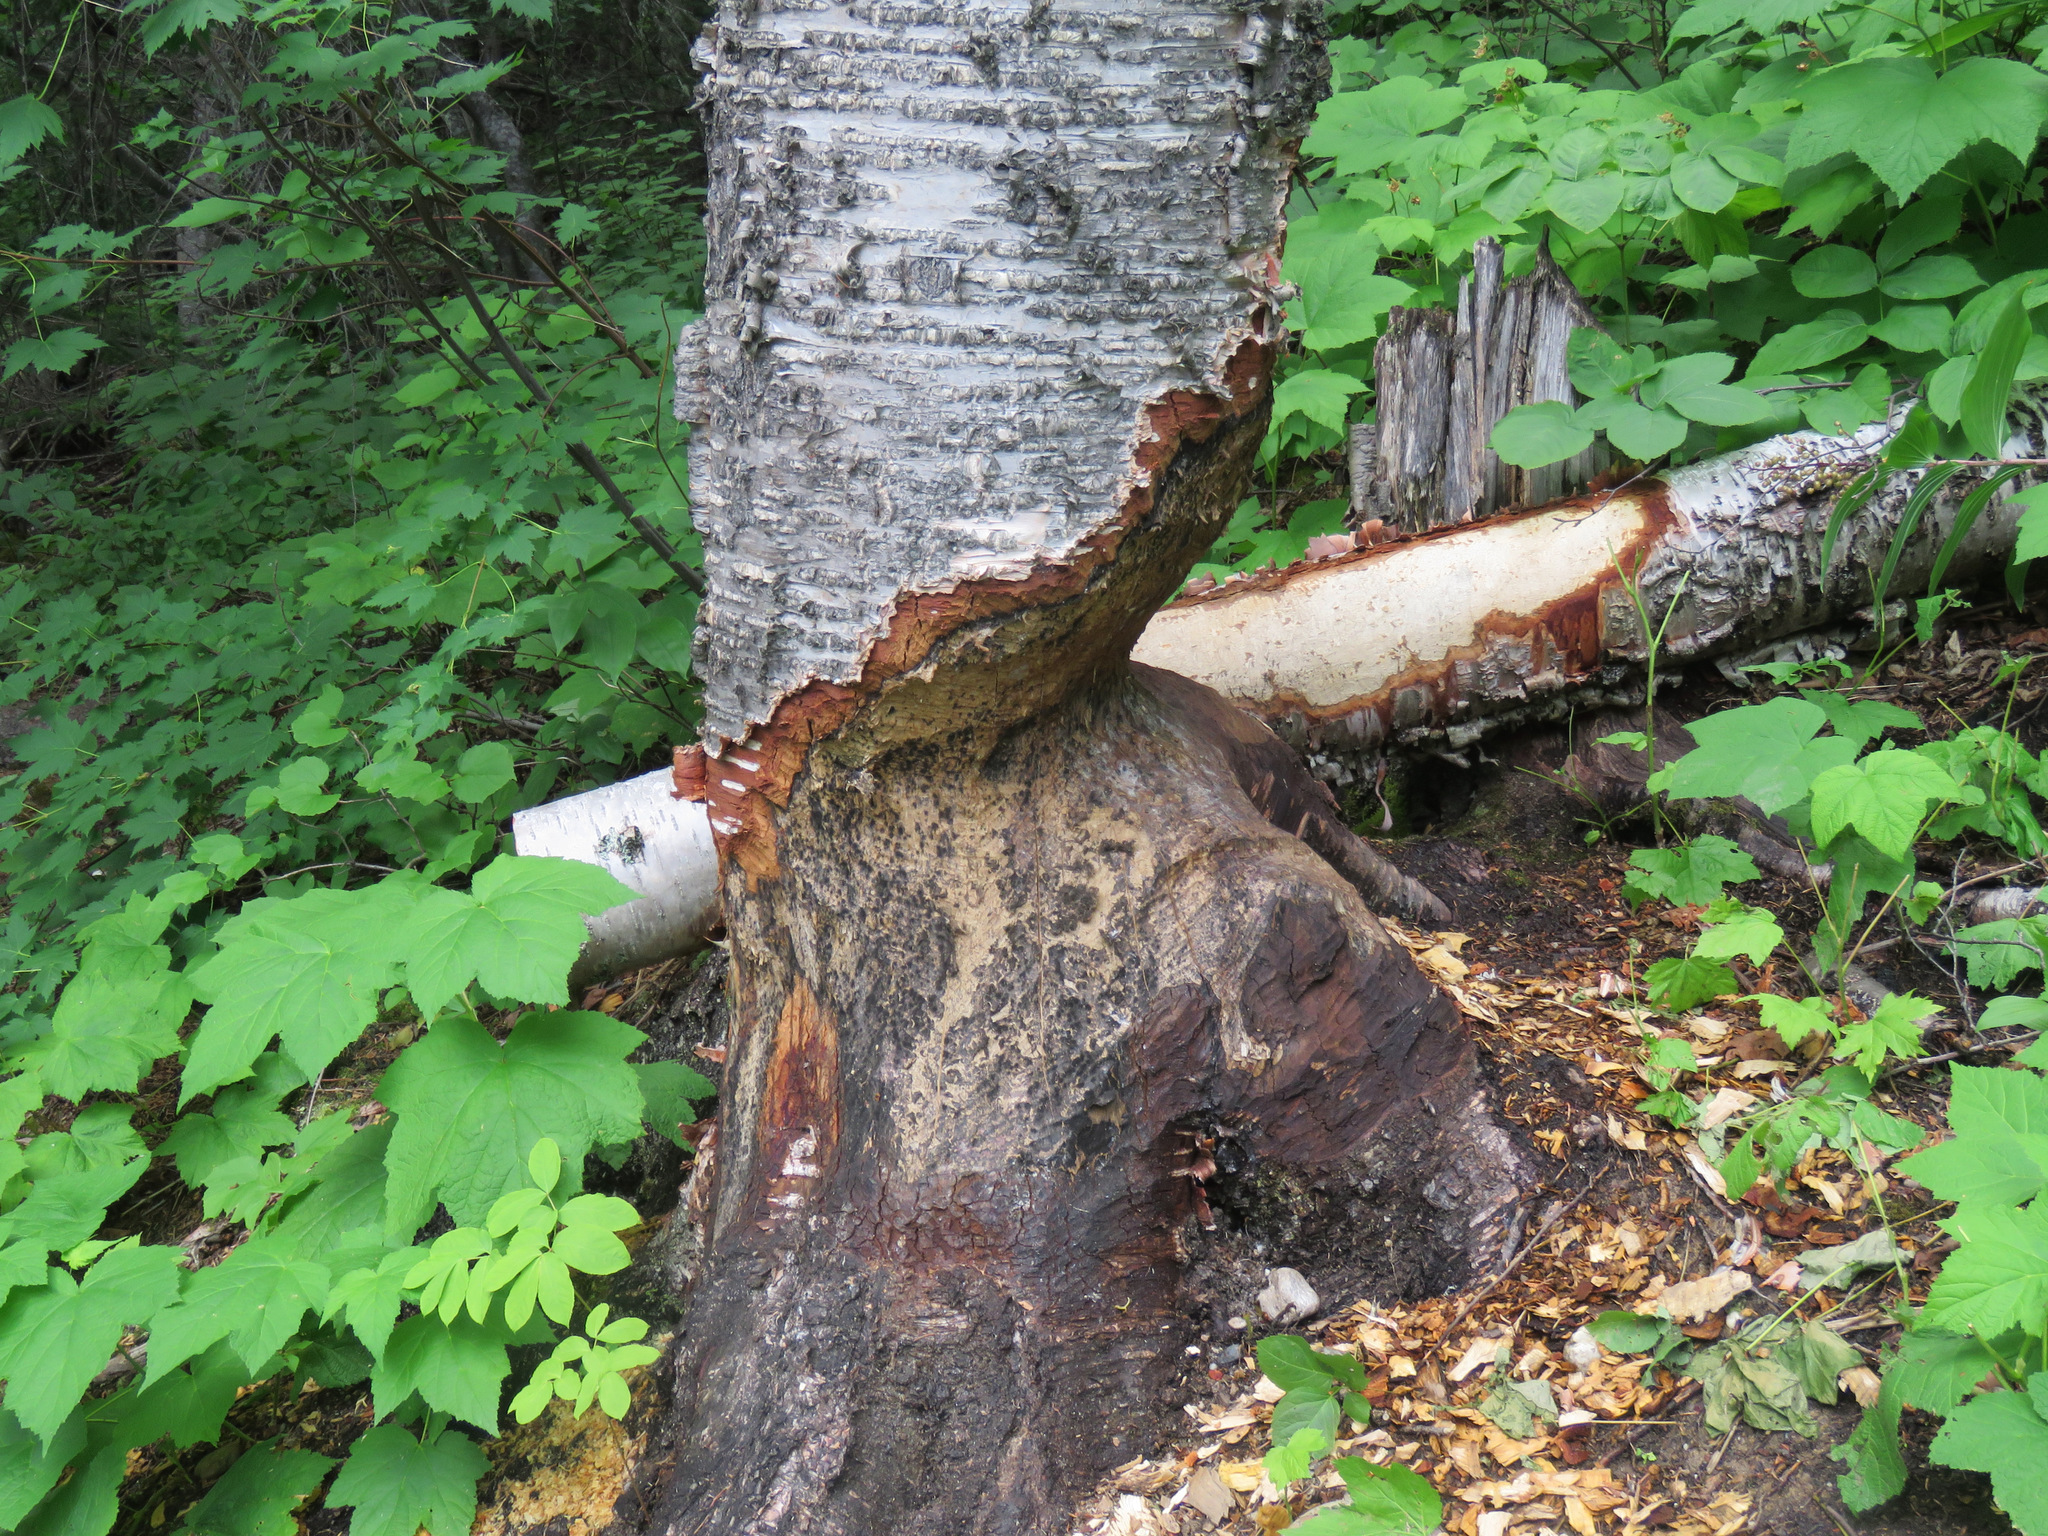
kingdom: Animalia
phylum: Chordata
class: Mammalia
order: Rodentia
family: Castoridae
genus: Castor
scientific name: Castor canadensis
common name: American beaver
